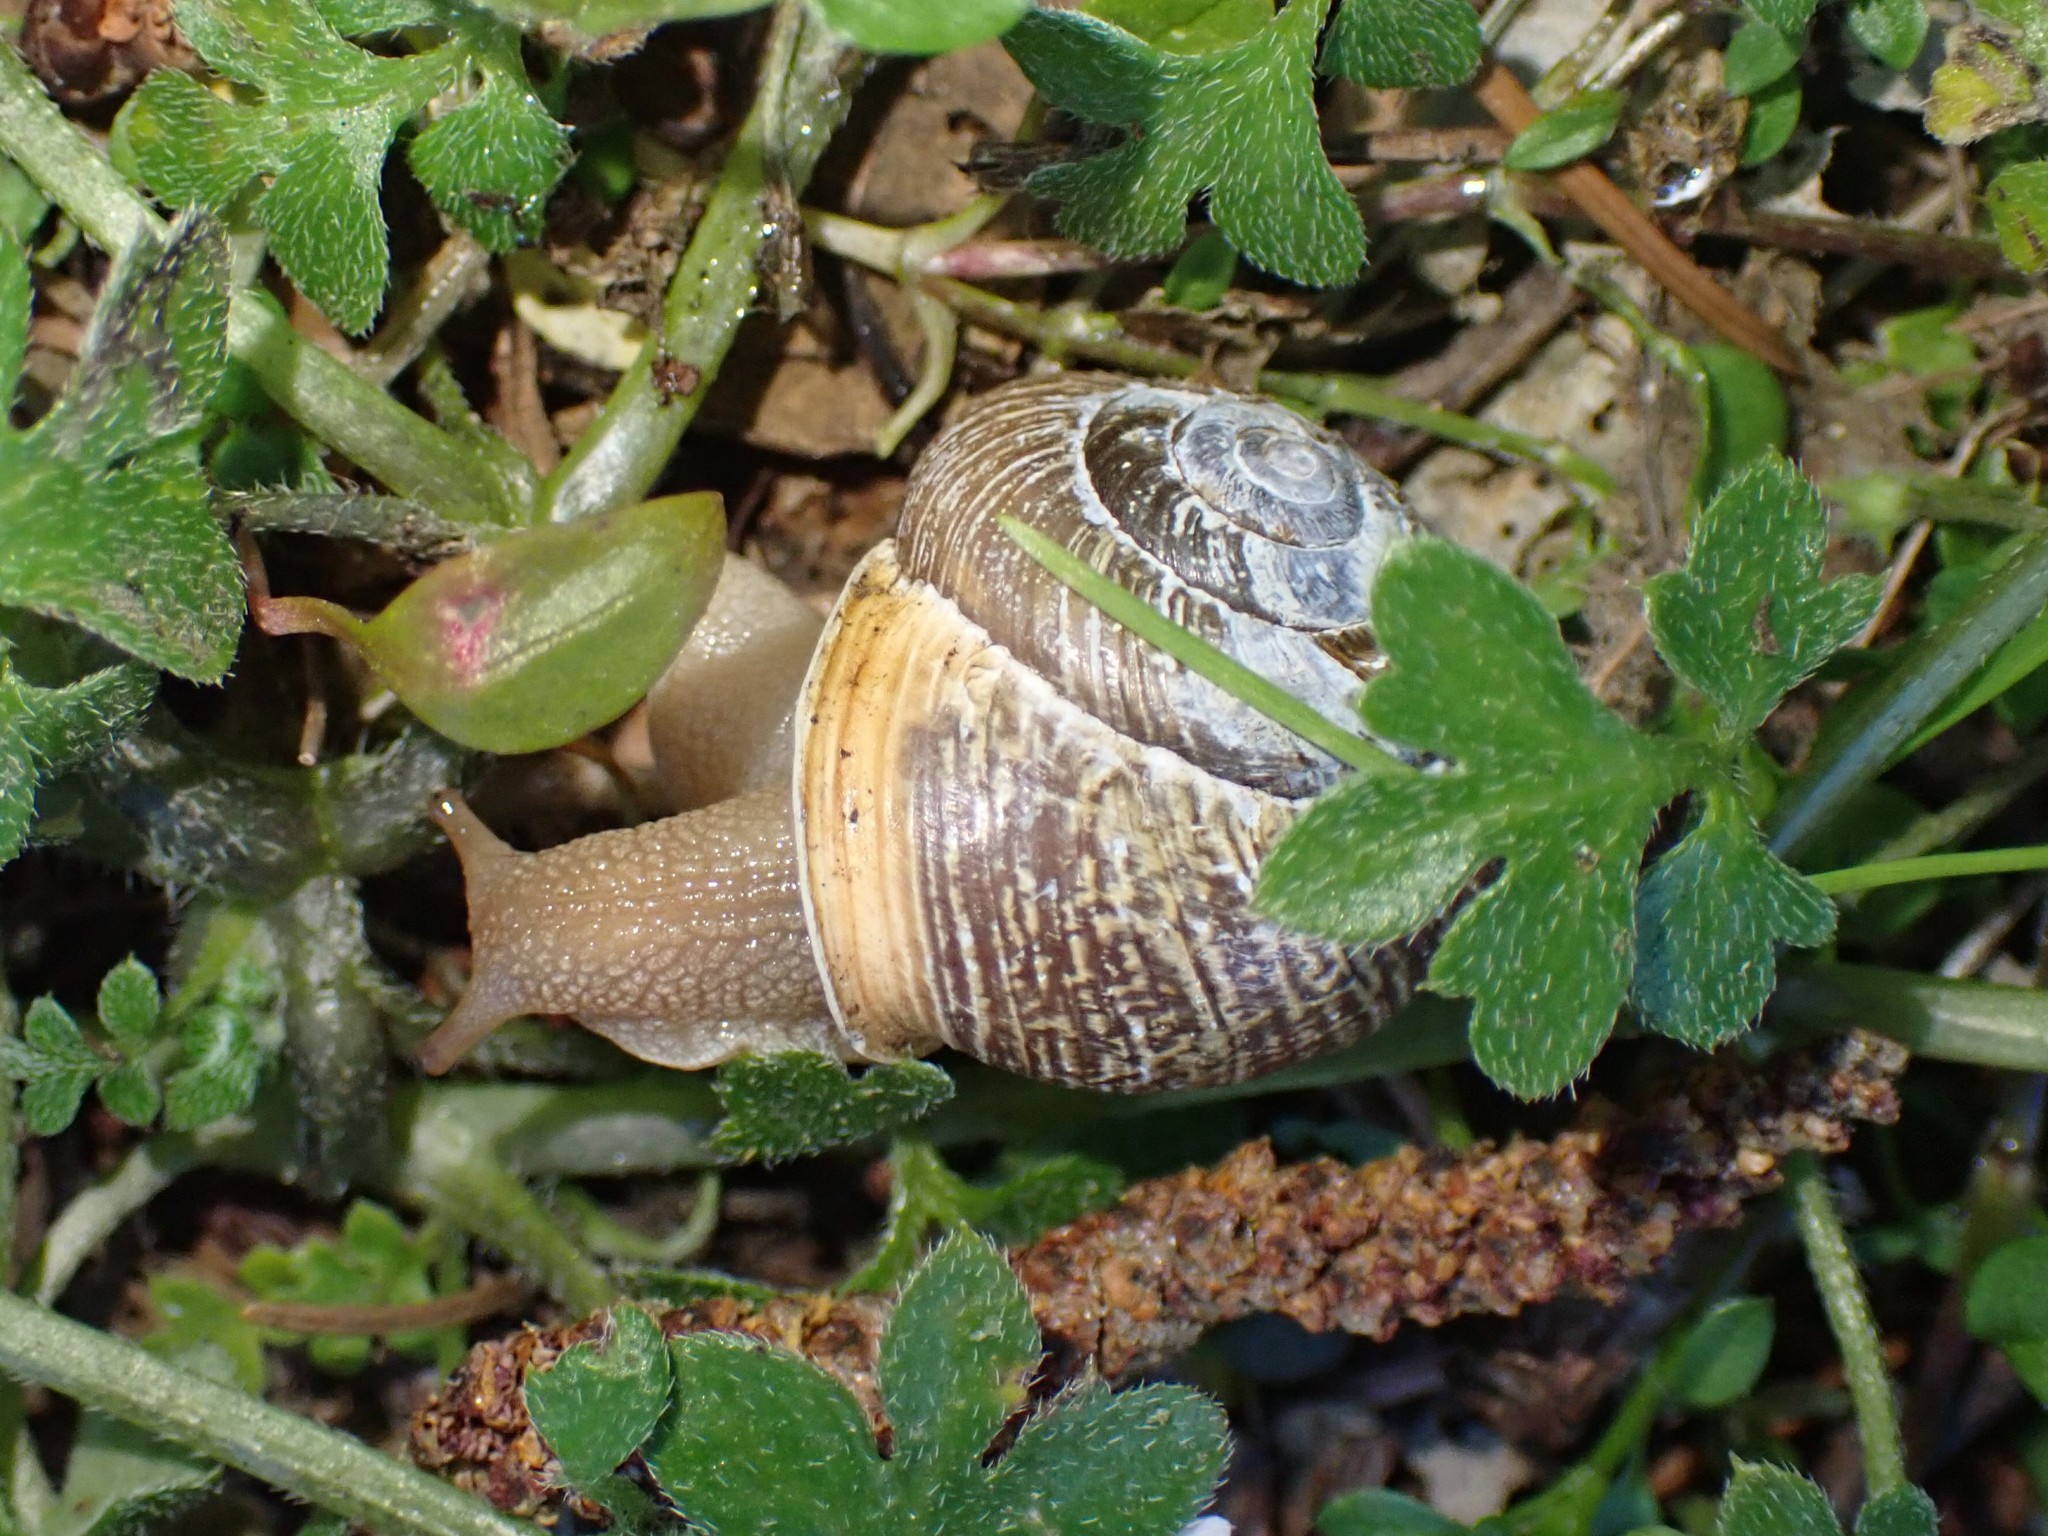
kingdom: Animalia
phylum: Mollusca
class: Gastropoda
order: Stylommatophora
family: Polygyridae
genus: Allogona
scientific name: Allogona townsendiana
